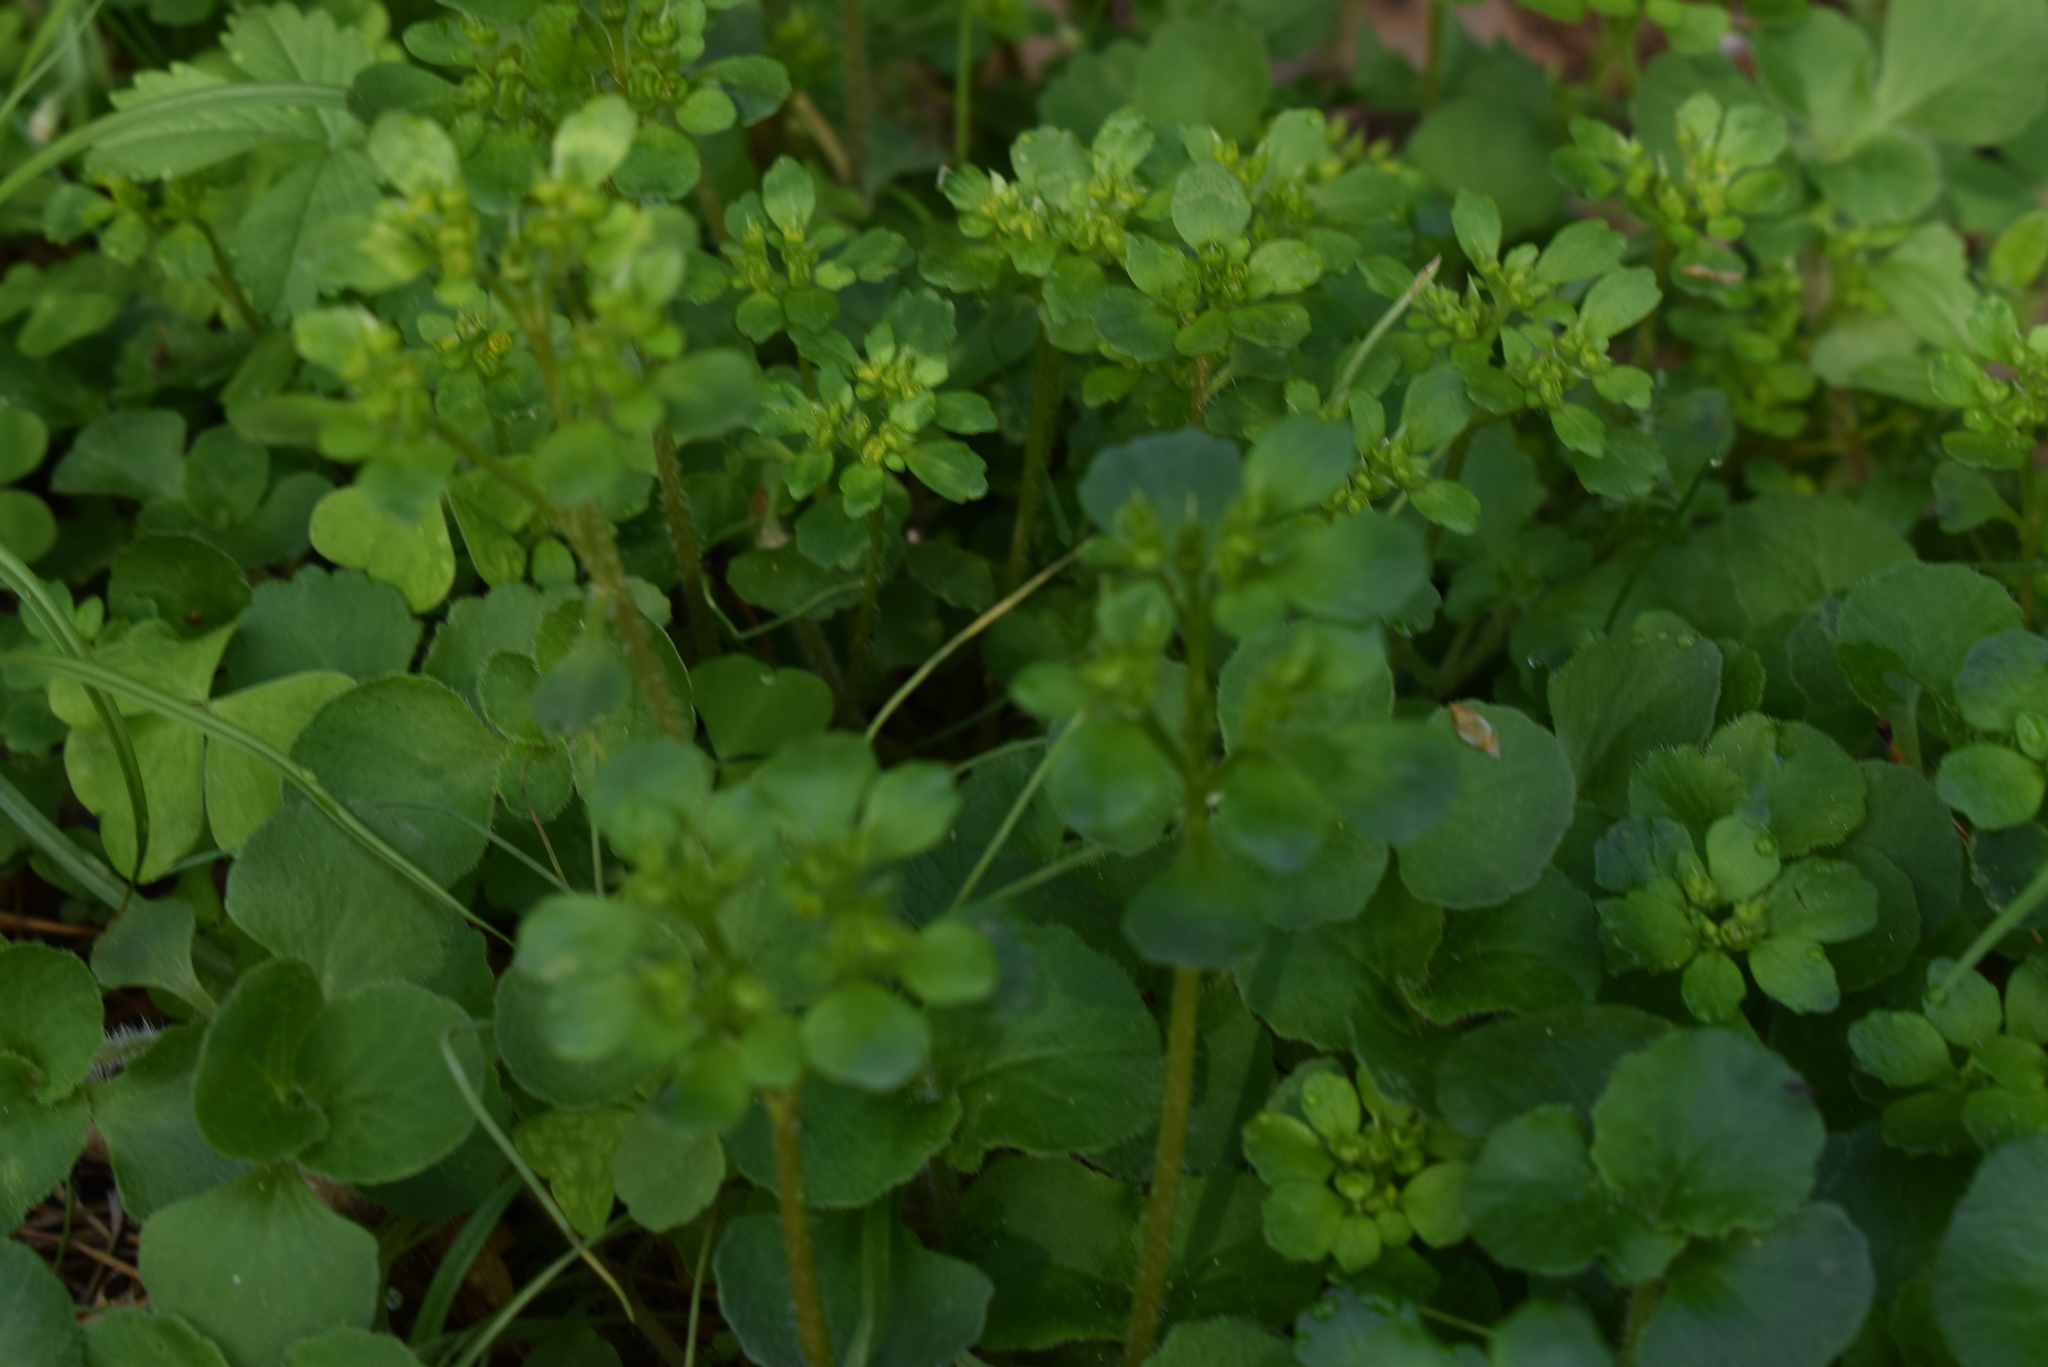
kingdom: Plantae
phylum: Tracheophyta
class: Magnoliopsida
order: Saxifragales
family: Saxifragaceae
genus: Chrysosplenium
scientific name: Chrysosplenium pilosum
